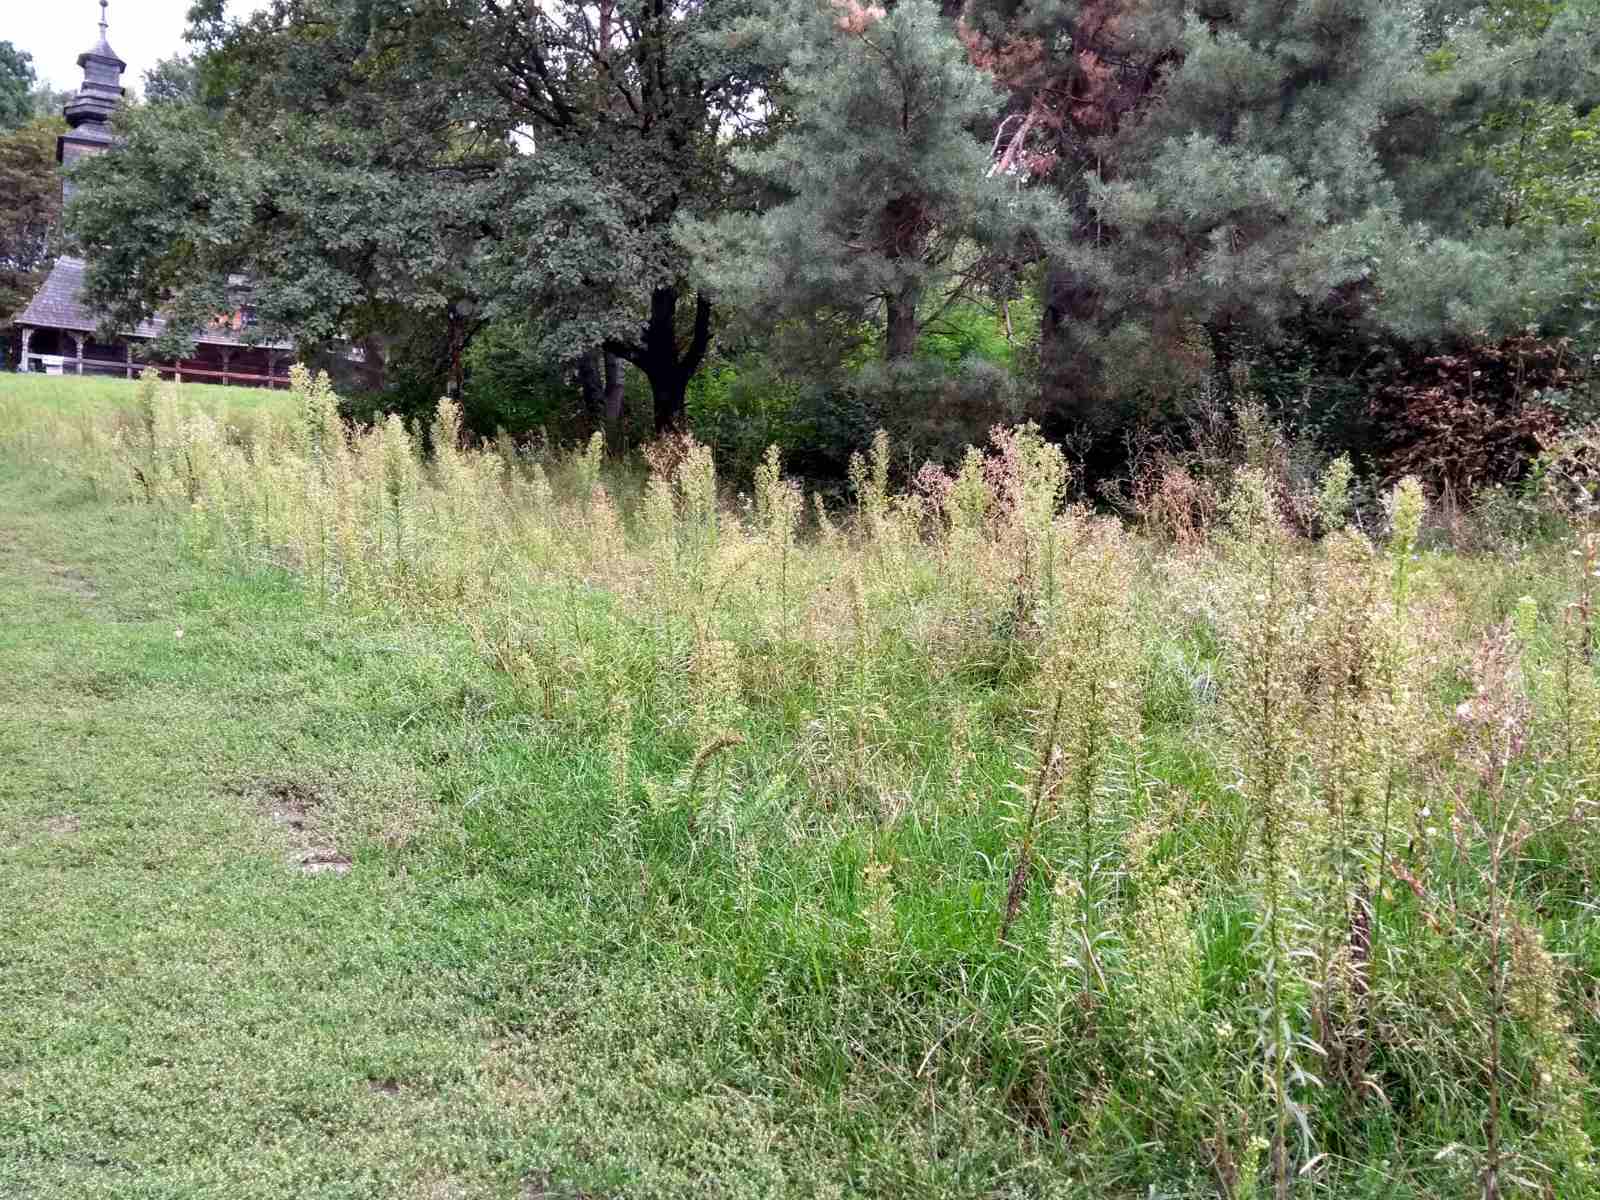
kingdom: Plantae
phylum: Tracheophyta
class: Magnoliopsida
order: Asterales
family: Asteraceae
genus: Erigeron
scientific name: Erigeron canadensis
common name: Canadian fleabane
